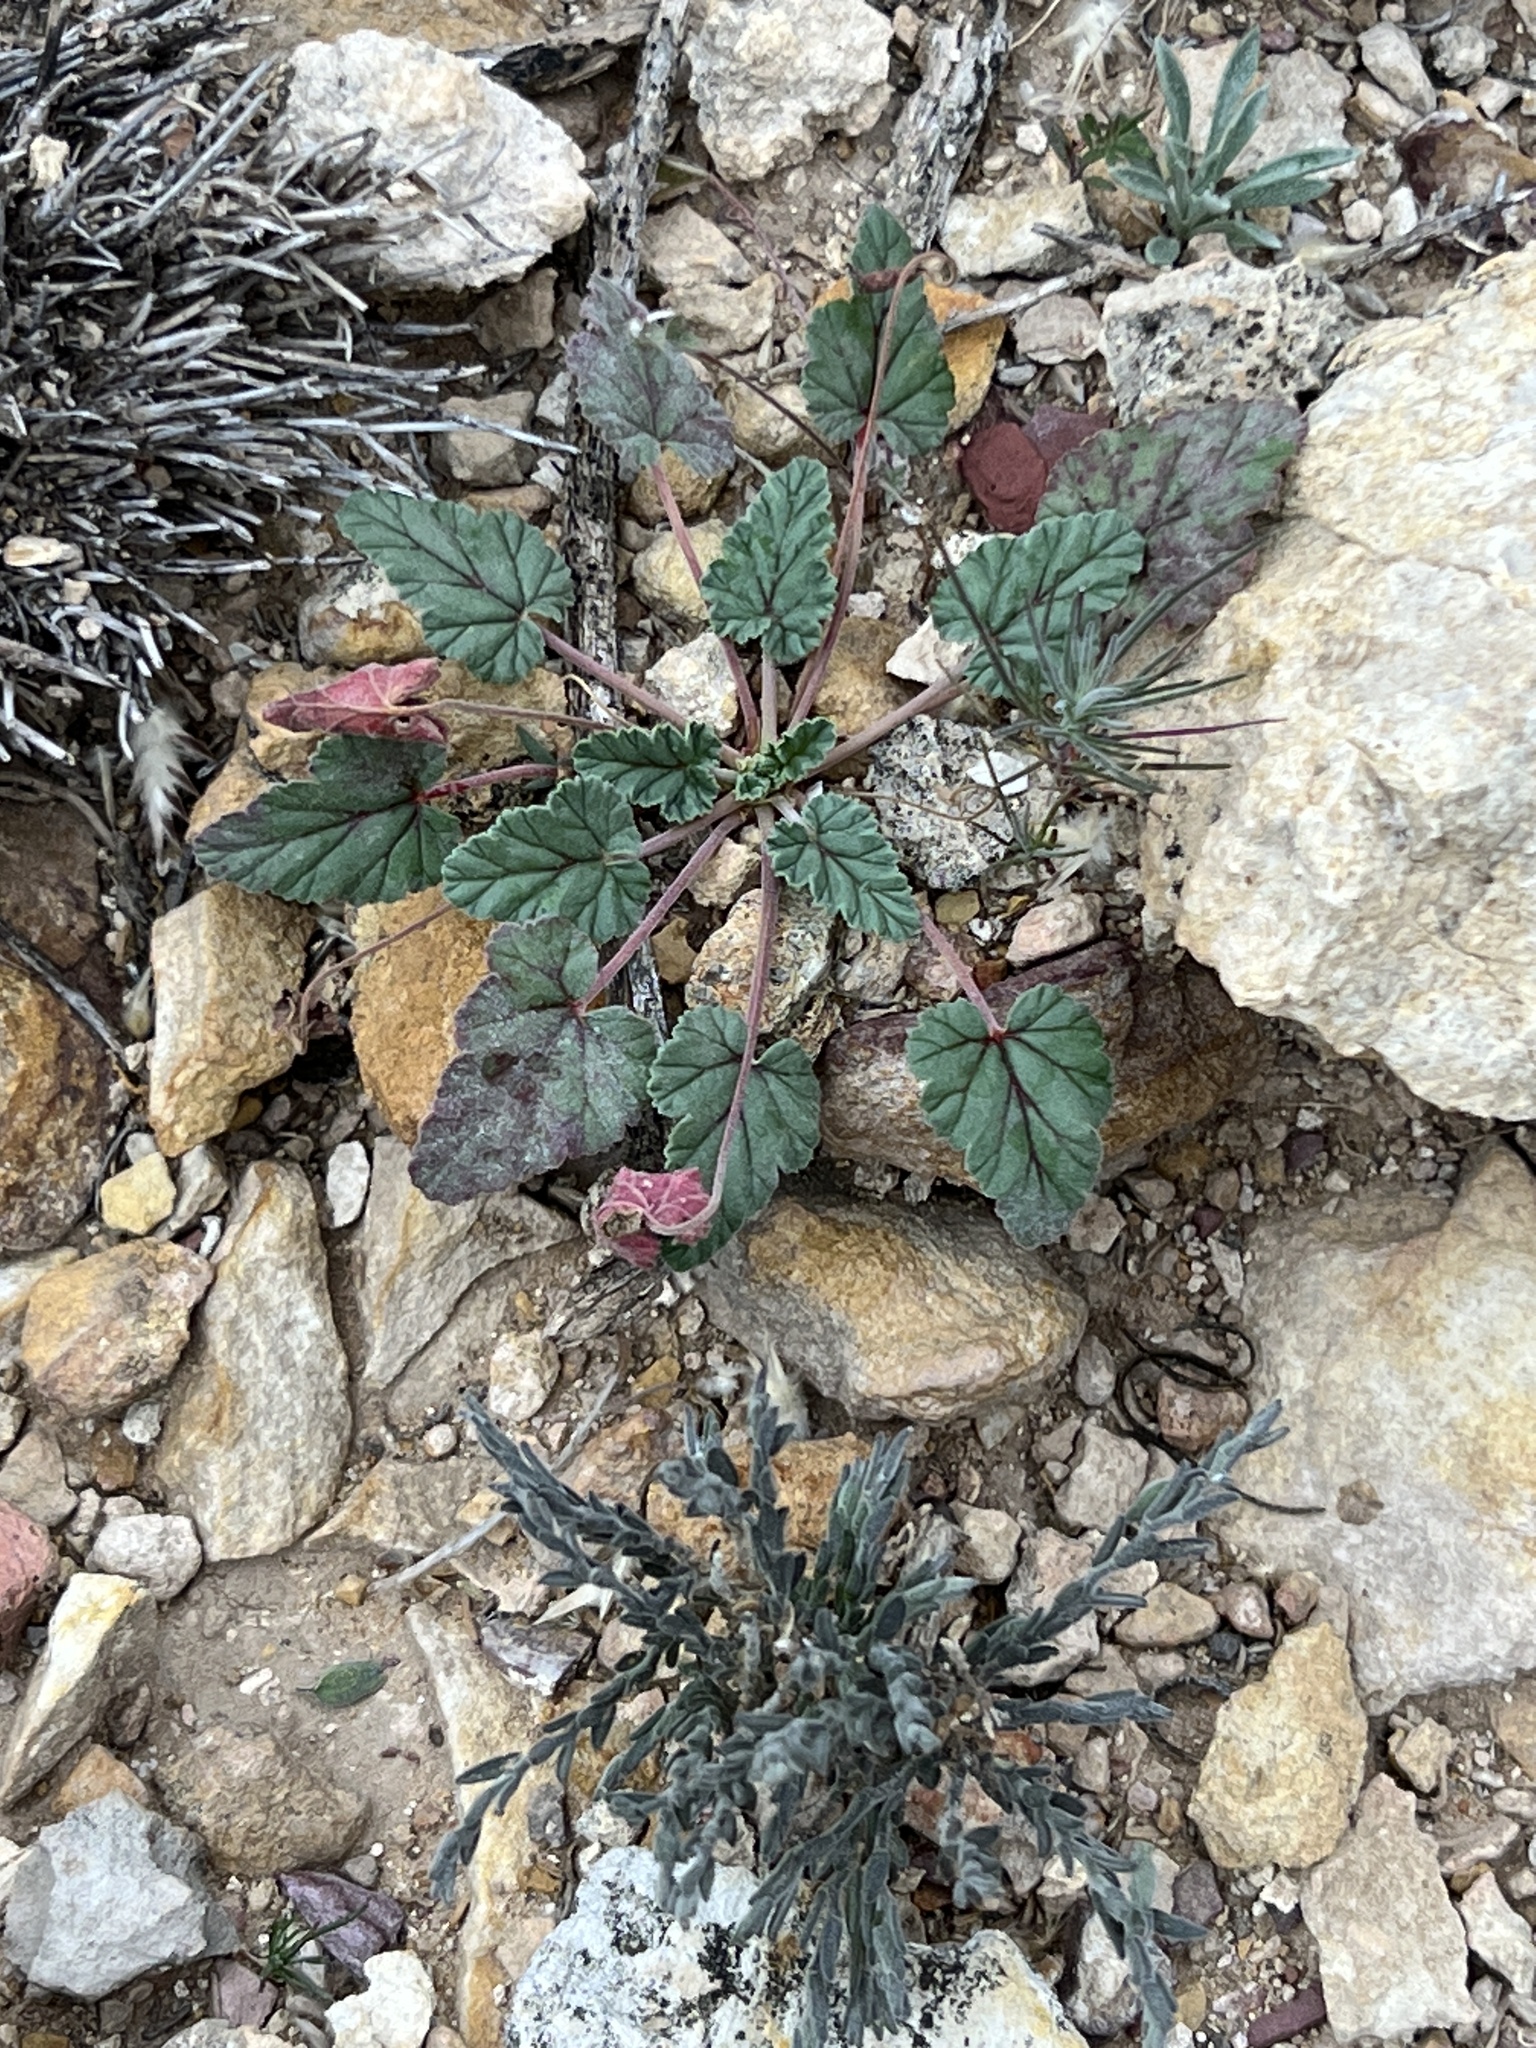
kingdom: Plantae
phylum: Tracheophyta
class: Magnoliopsida
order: Geraniales
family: Geraniaceae
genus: Erodium
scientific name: Erodium texanum
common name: Texas stork's-bill
